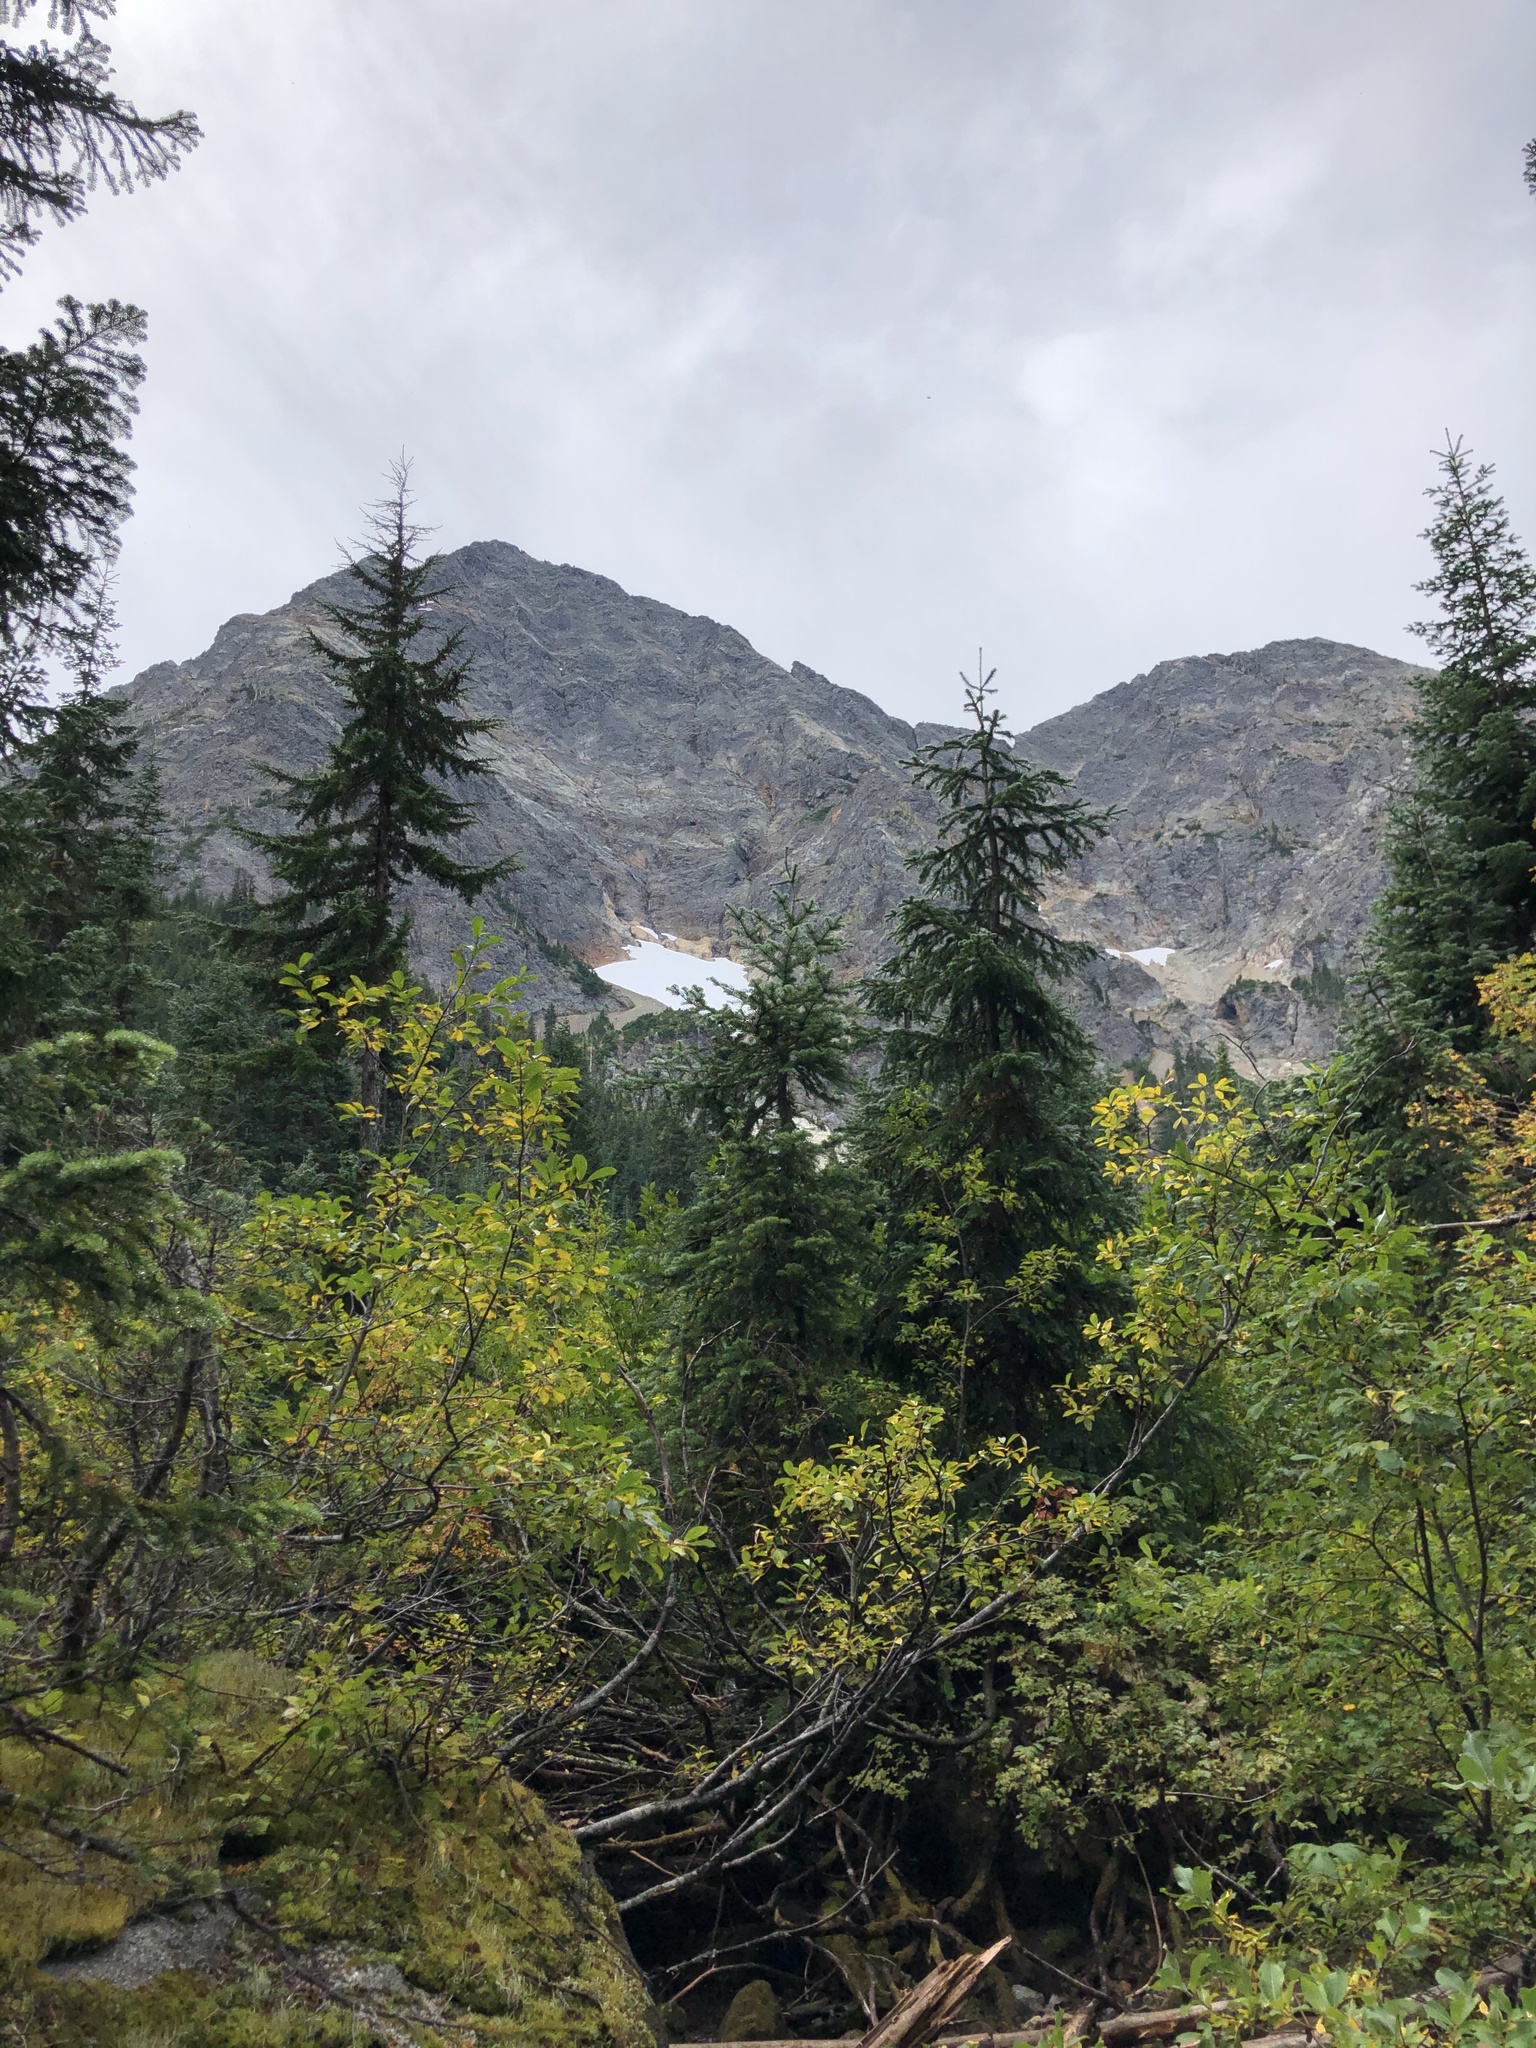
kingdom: Plantae
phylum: Tracheophyta
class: Pinopsida
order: Pinales
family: Pinaceae
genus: Tsuga
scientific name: Tsuga mertensiana
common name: Mountain hemlock
